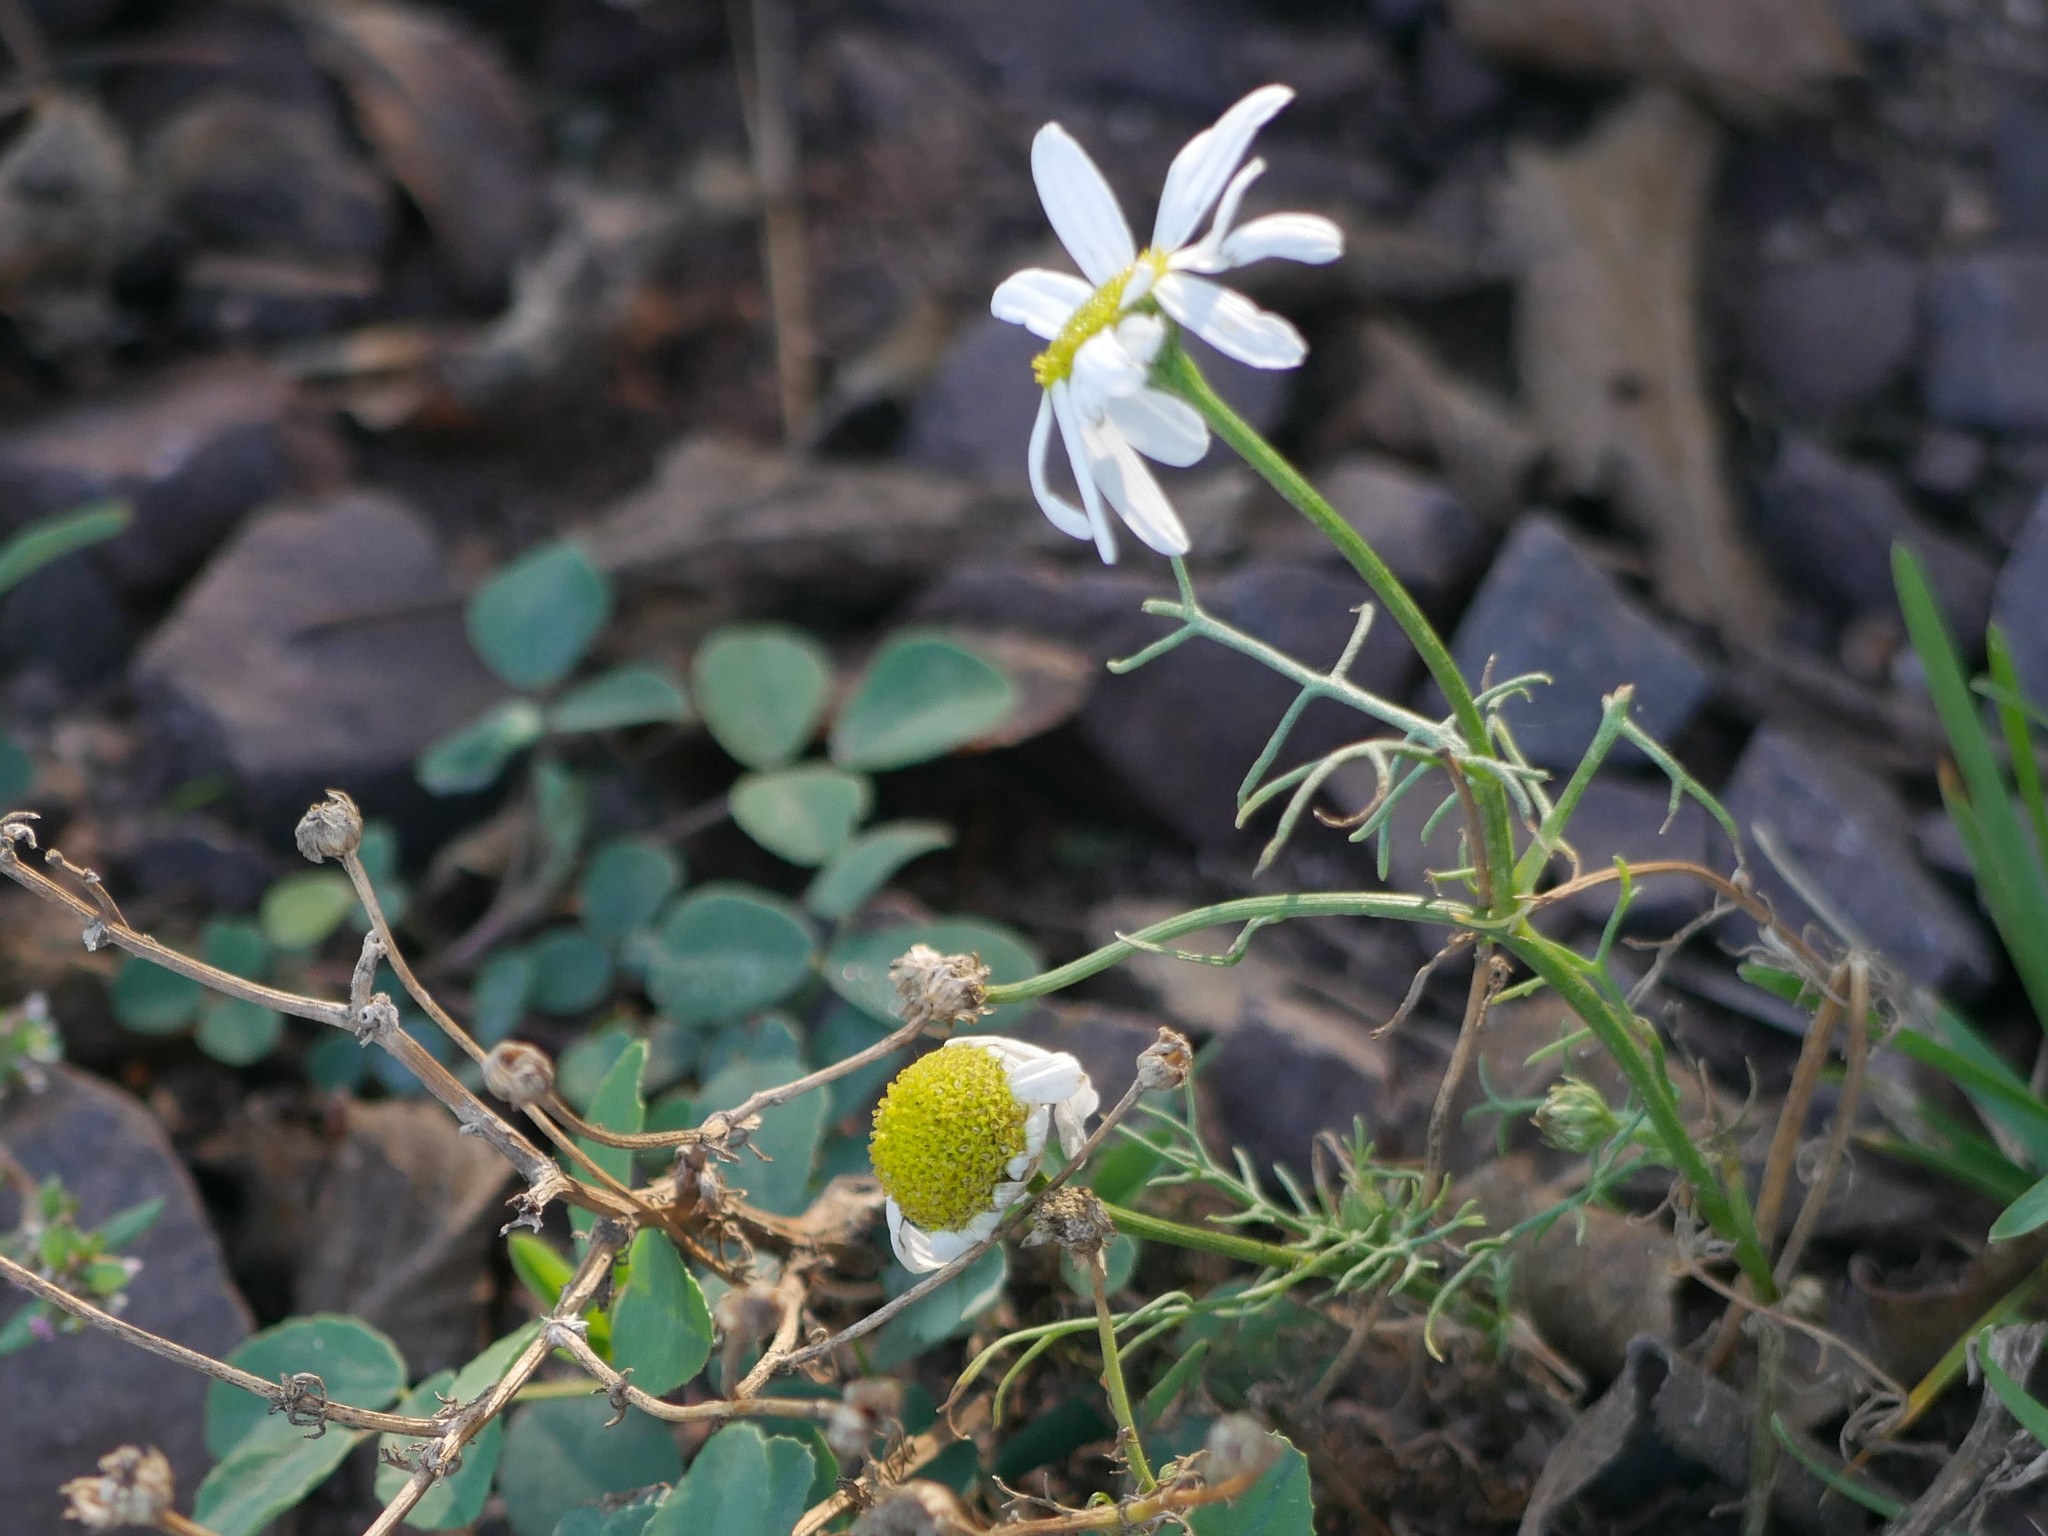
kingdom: Plantae
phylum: Tracheophyta
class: Magnoliopsida
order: Asterales
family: Asteraceae
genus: Matricaria
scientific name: Matricaria chamomilla
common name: Scented mayweed
